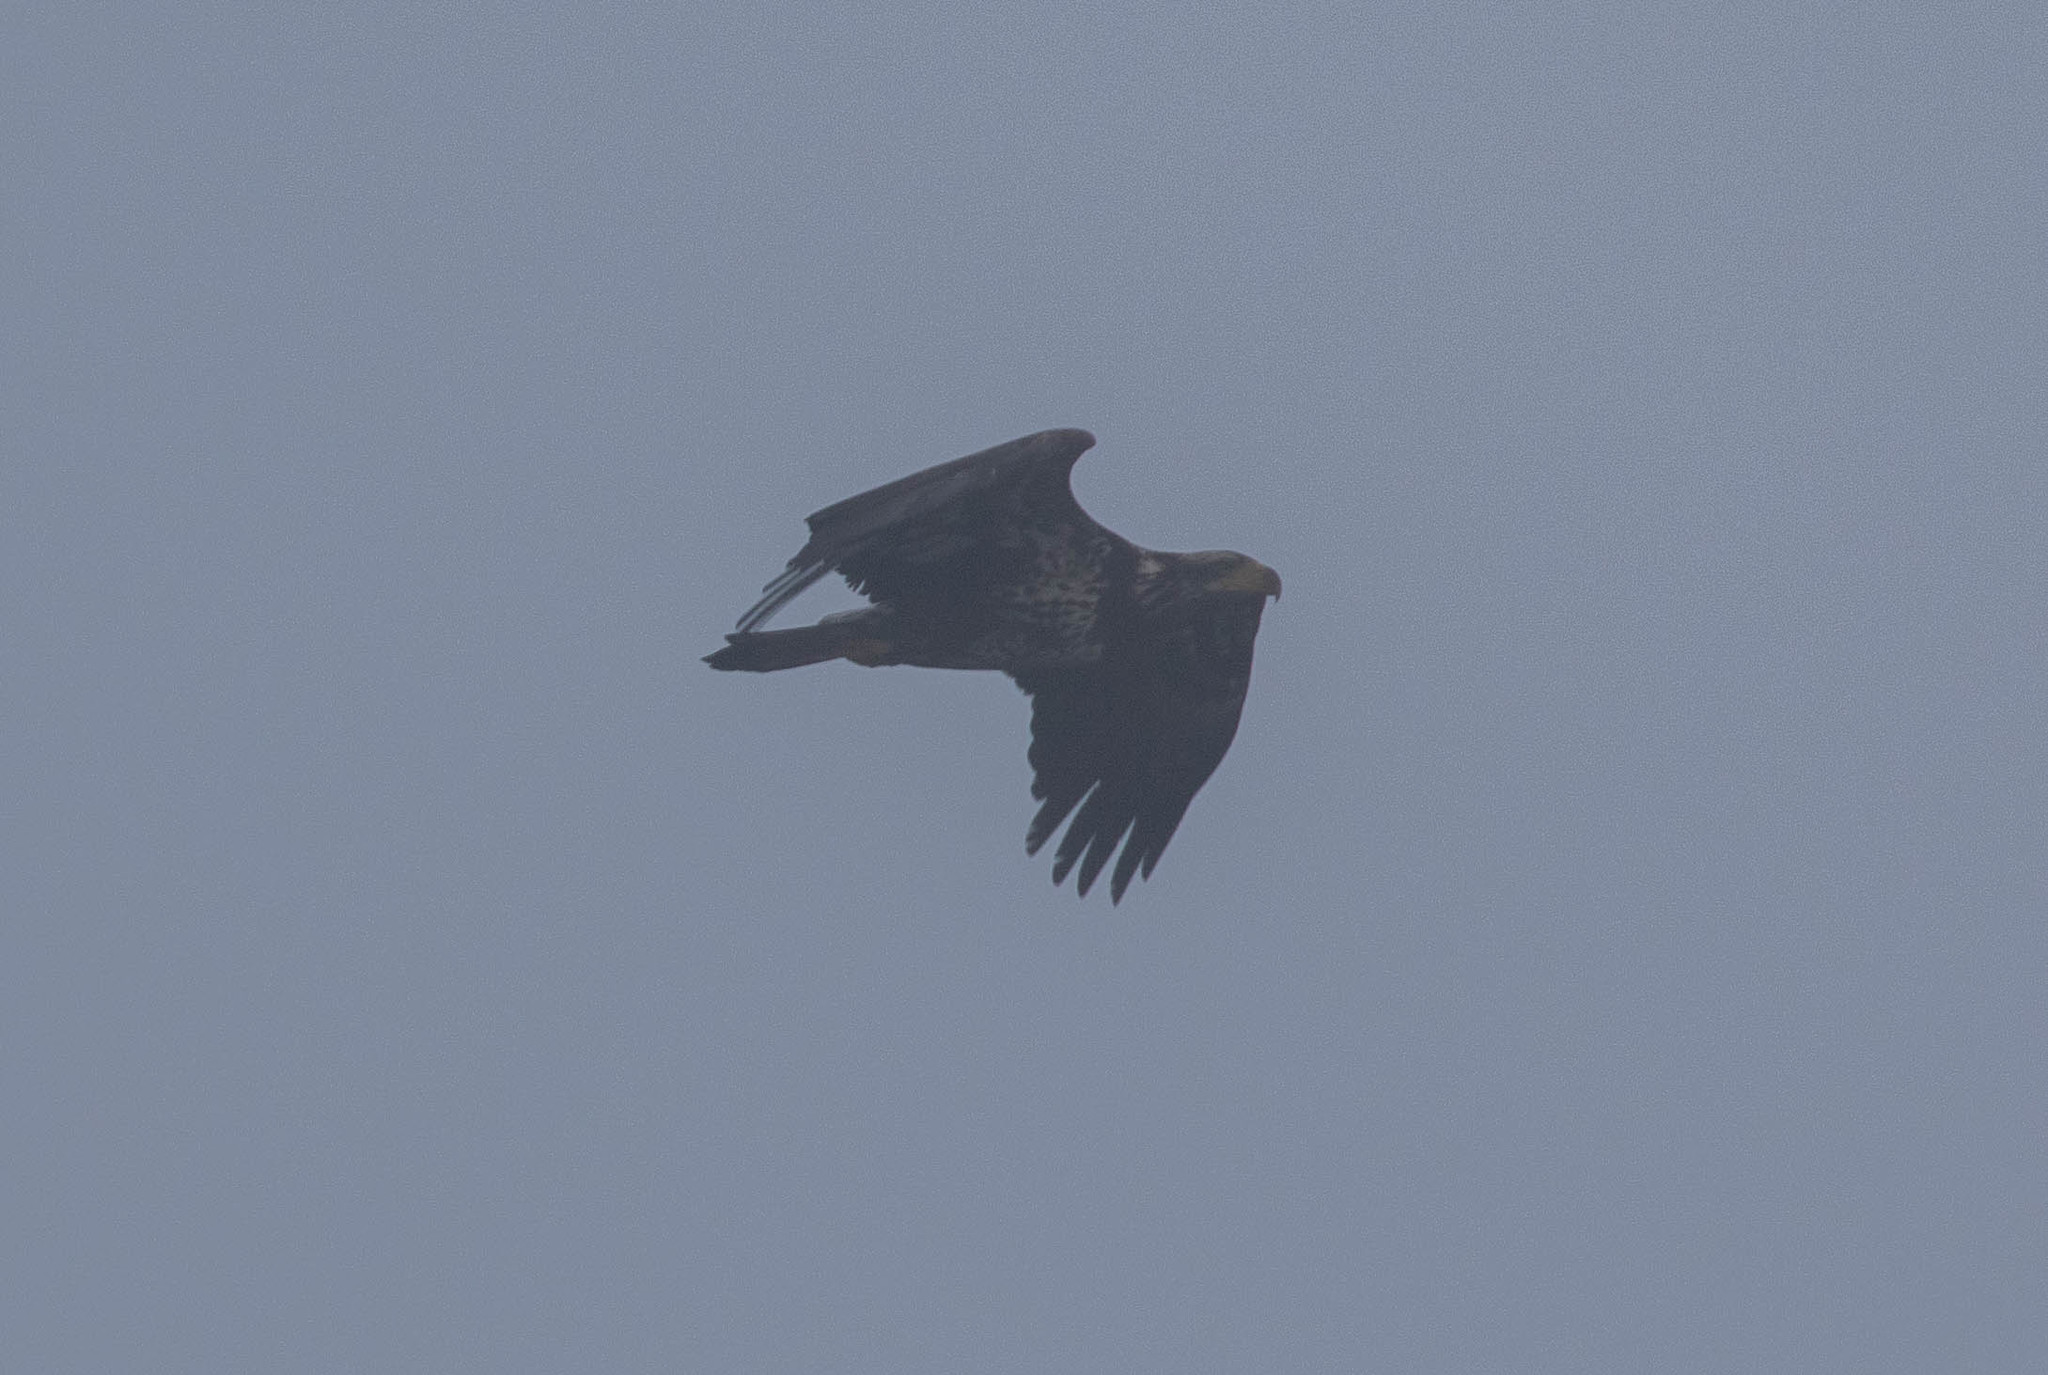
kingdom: Animalia
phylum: Chordata
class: Aves
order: Accipitriformes
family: Accipitridae
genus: Haliaeetus
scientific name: Haliaeetus leucocephalus
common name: Bald eagle
